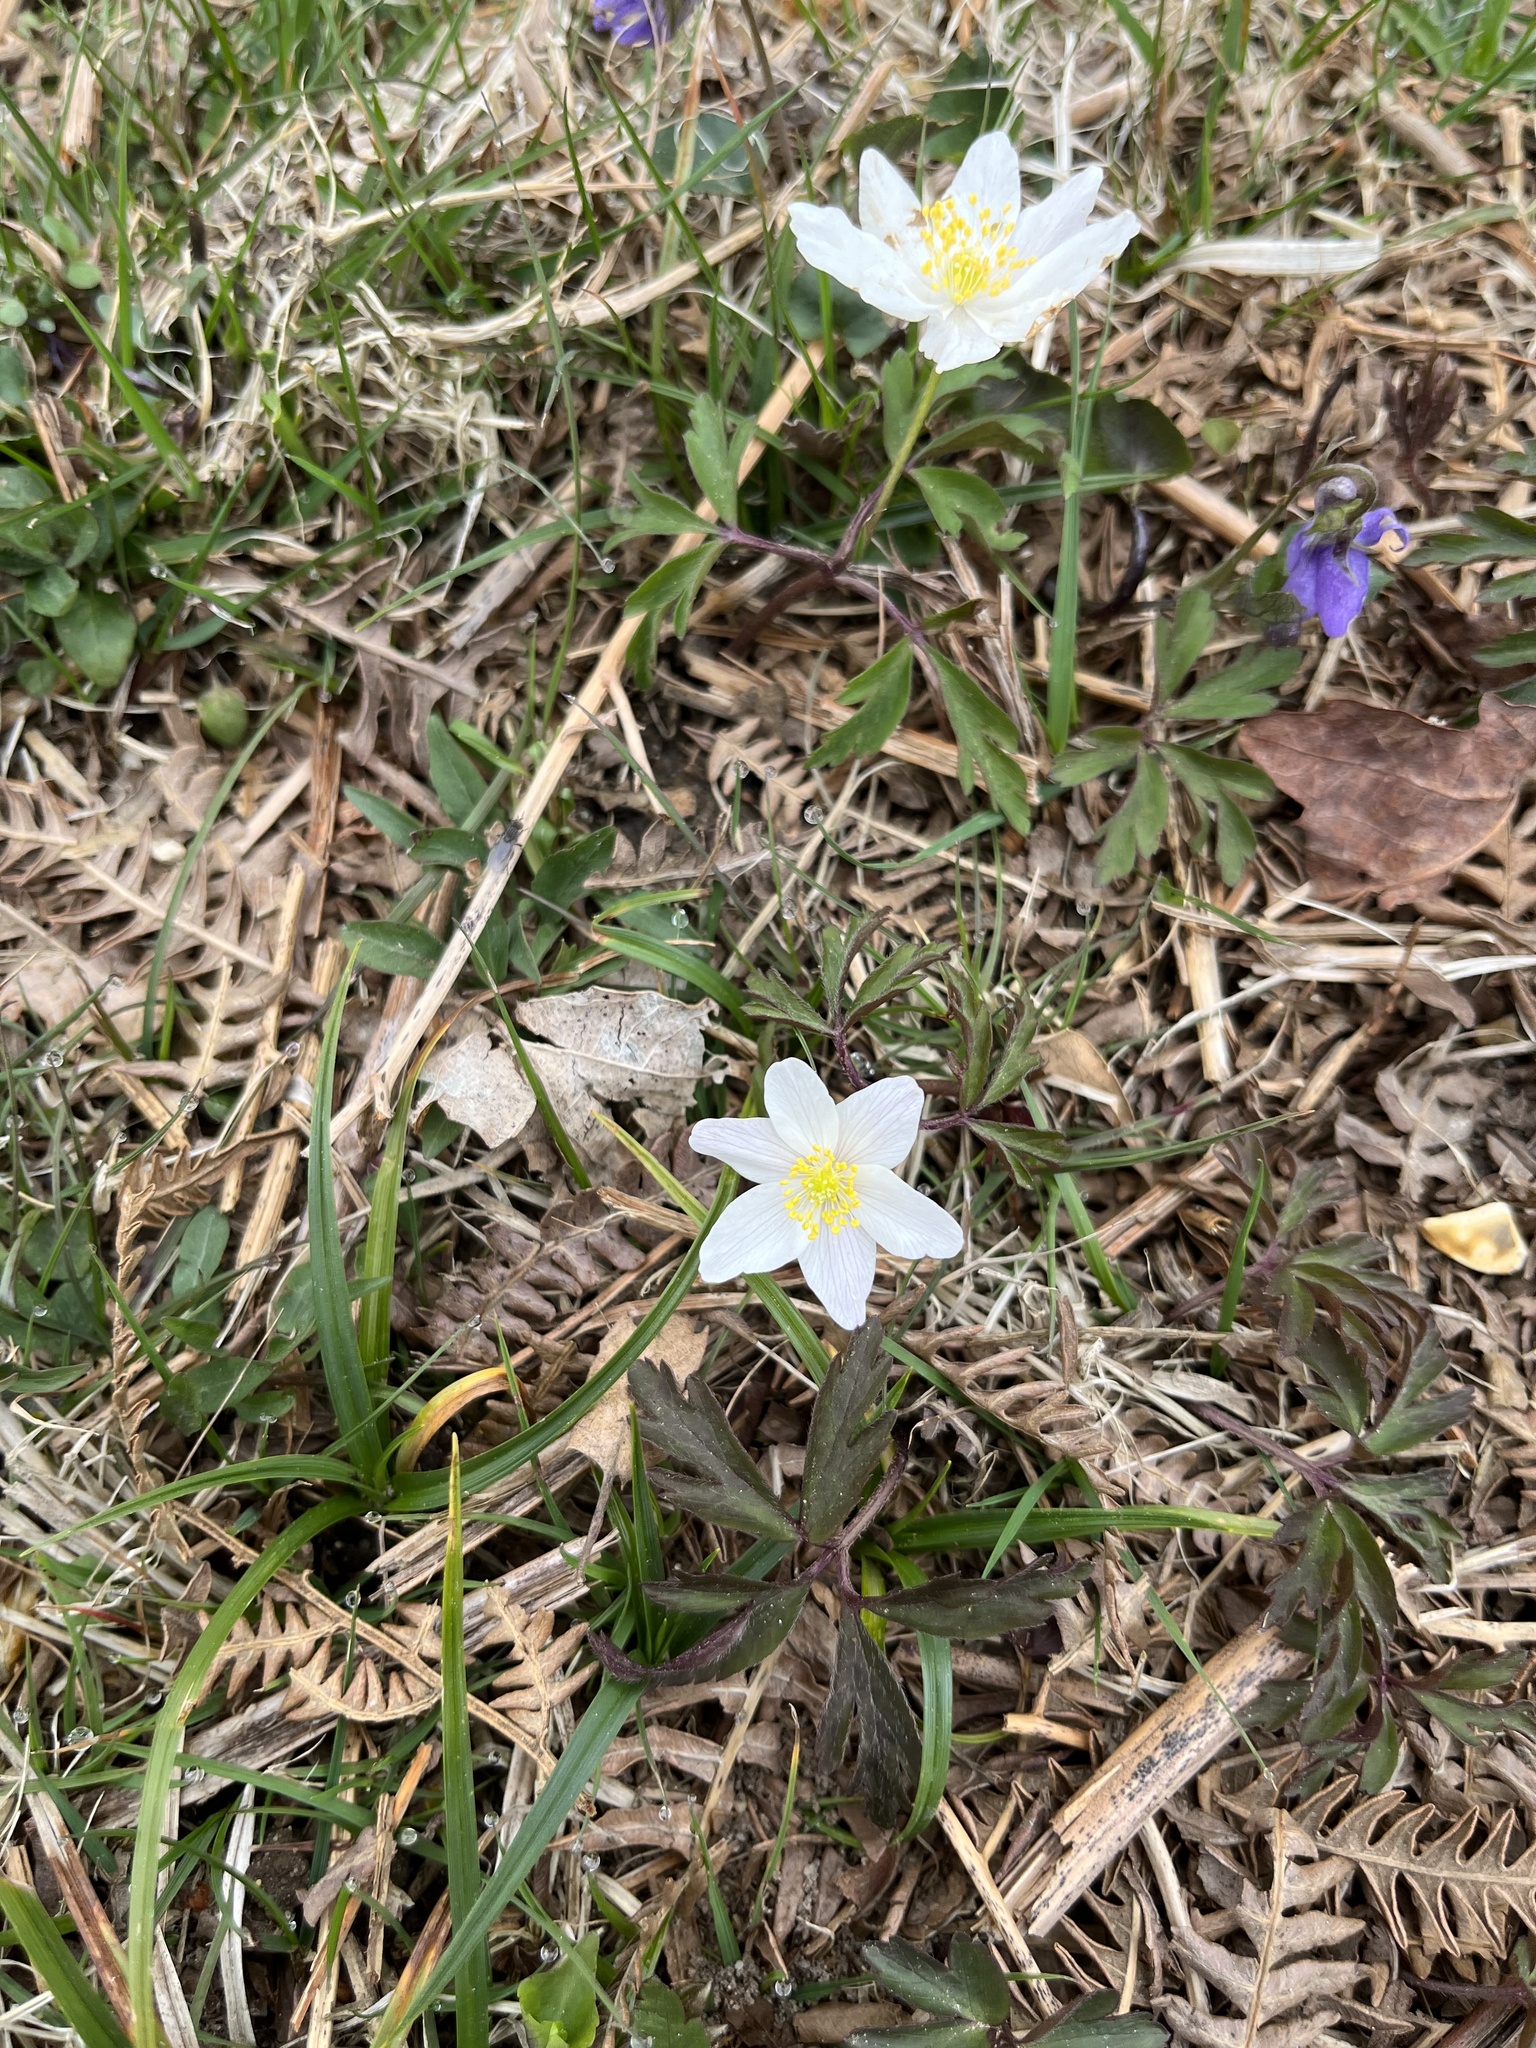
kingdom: Plantae
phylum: Tracheophyta
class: Magnoliopsida
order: Ranunculales
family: Ranunculaceae
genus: Anemone
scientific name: Anemone nemorosa
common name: Wood anemone
